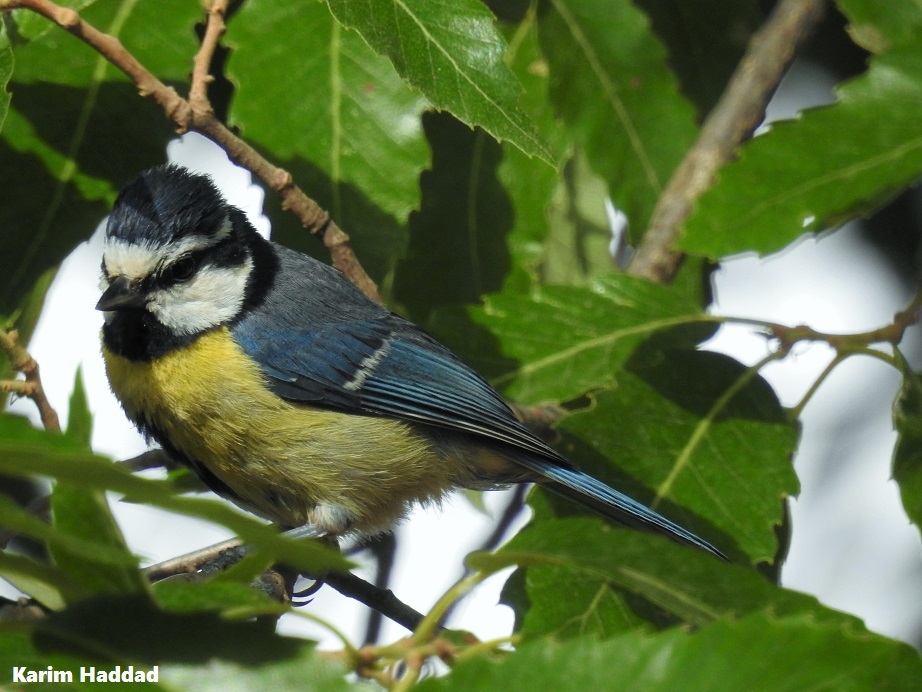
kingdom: Animalia
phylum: Chordata
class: Aves
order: Passeriformes
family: Paridae
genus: Cyanistes
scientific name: Cyanistes teneriffae
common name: African blue tit
